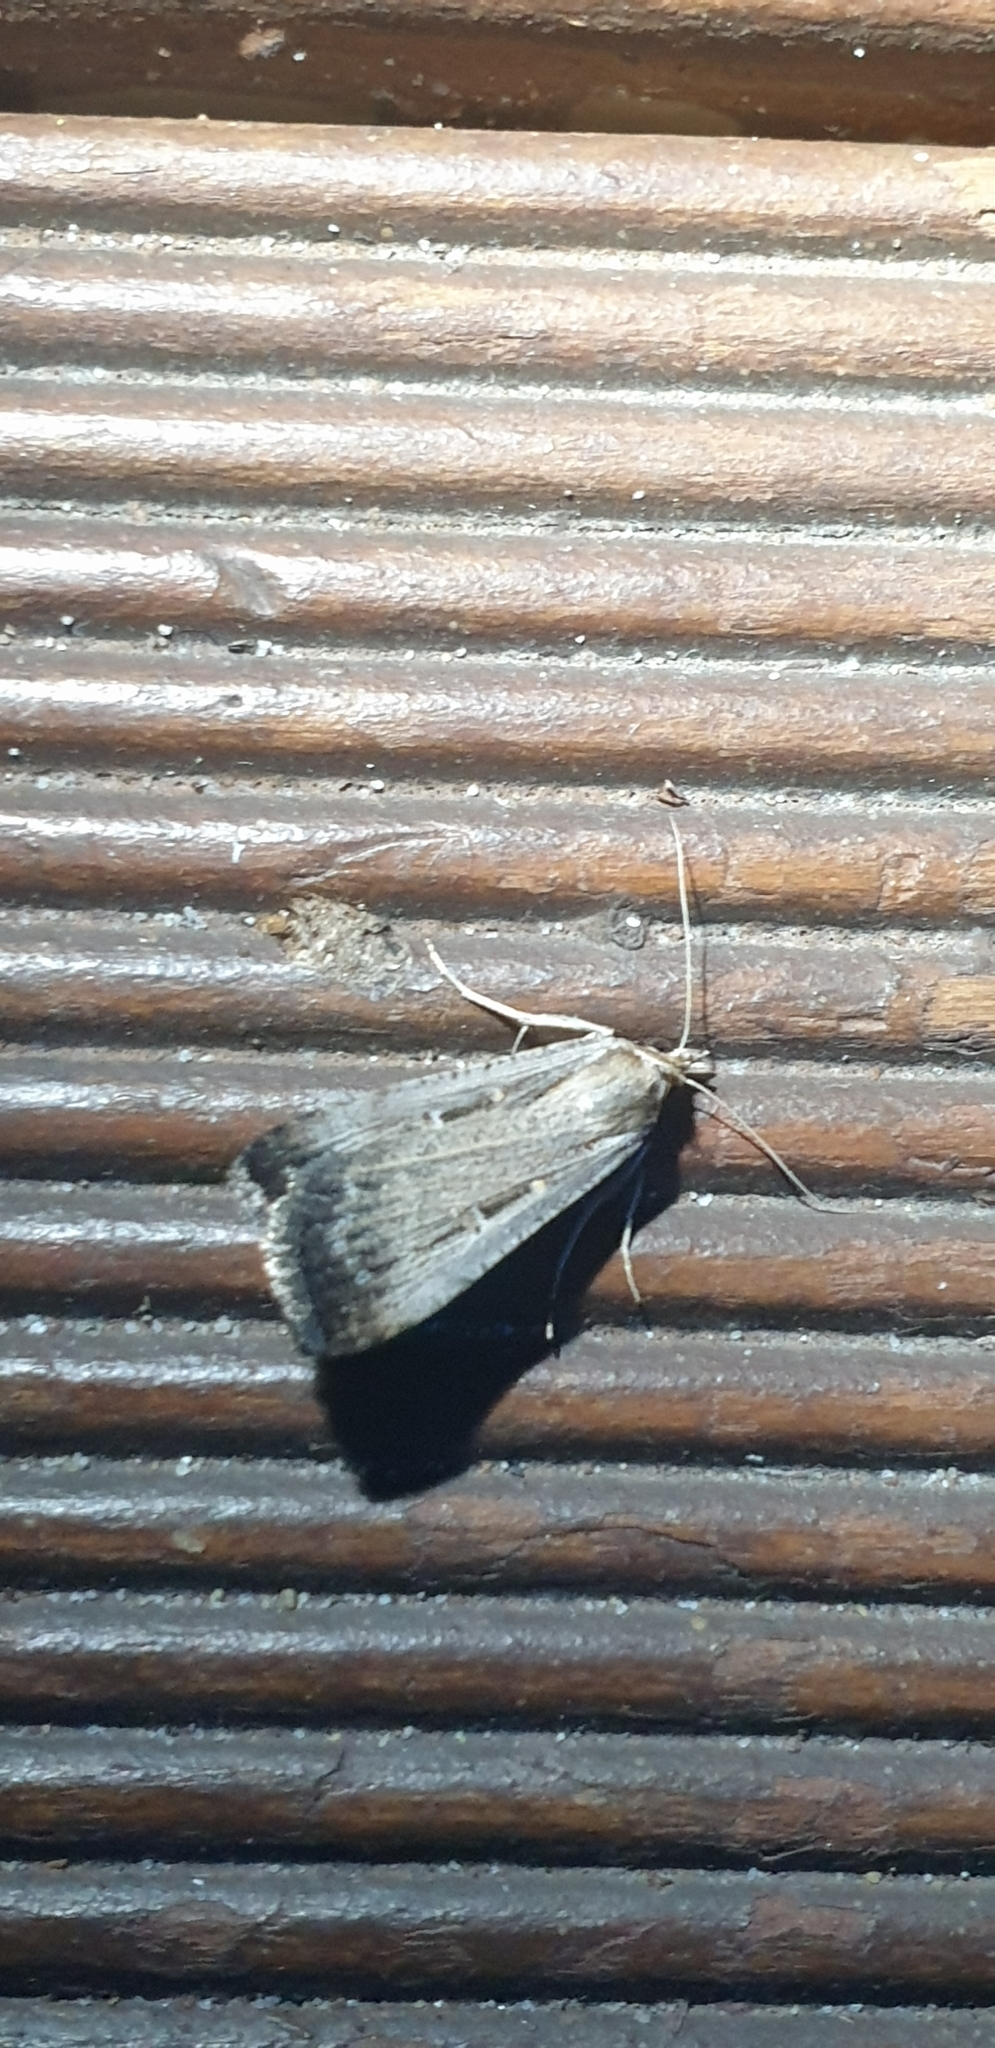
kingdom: Animalia
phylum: Arthropoda
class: Insecta
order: Lepidoptera
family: Noctuidae
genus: Tathorhynchus
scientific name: Tathorhynchus fallax
